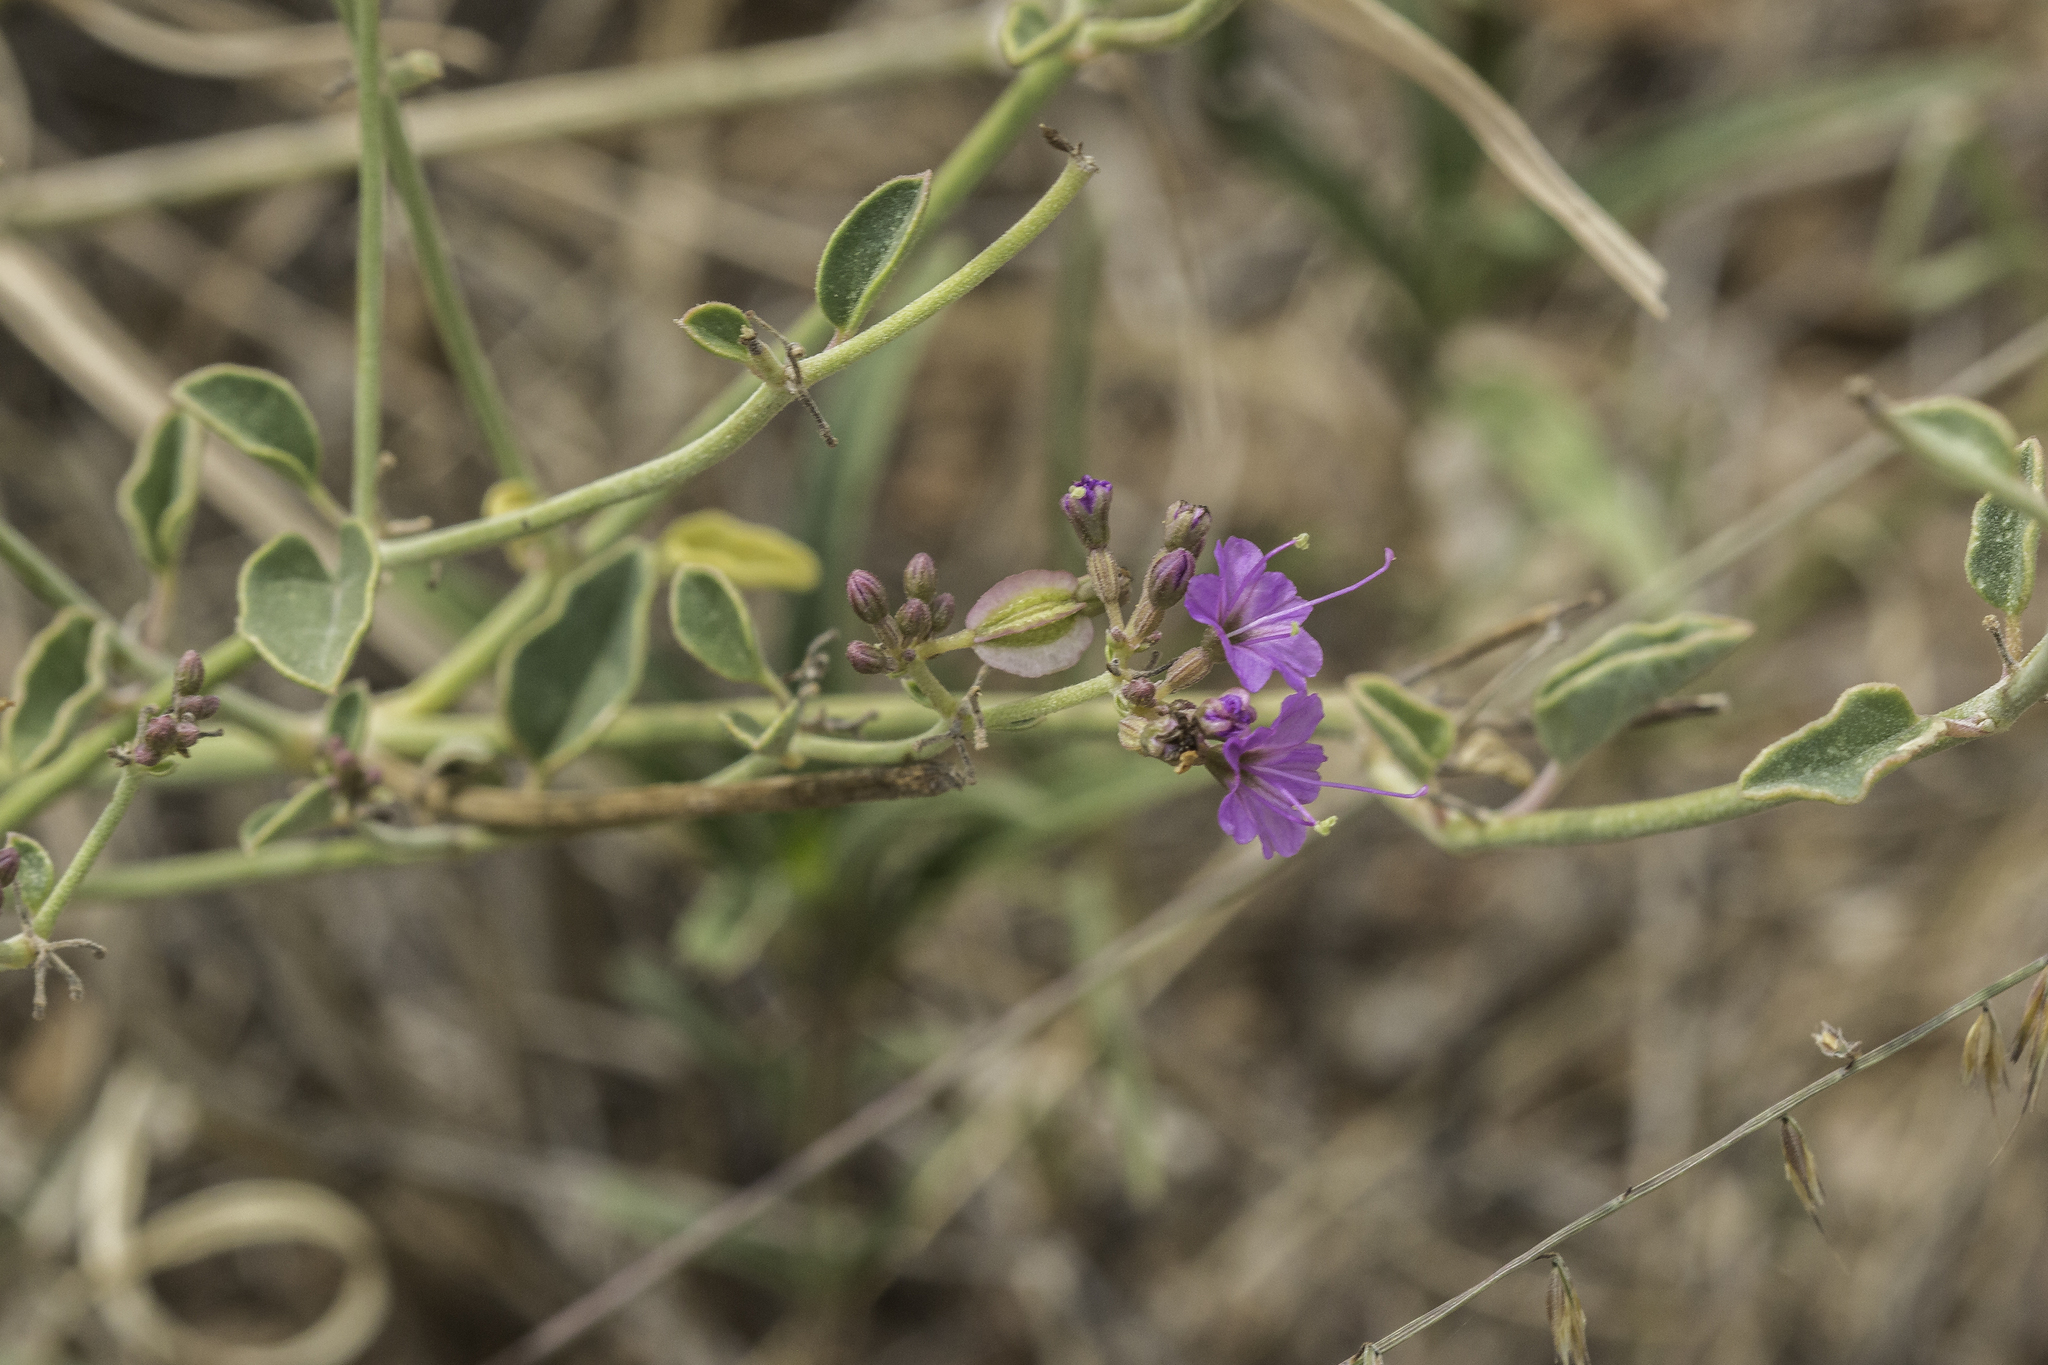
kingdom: Plantae
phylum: Tracheophyta
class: Magnoliopsida
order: Caryophyllales
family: Nyctaginaceae
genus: Acleisanthes
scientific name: Acleisanthes chenopodioides
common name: Goosefoot moonpod
